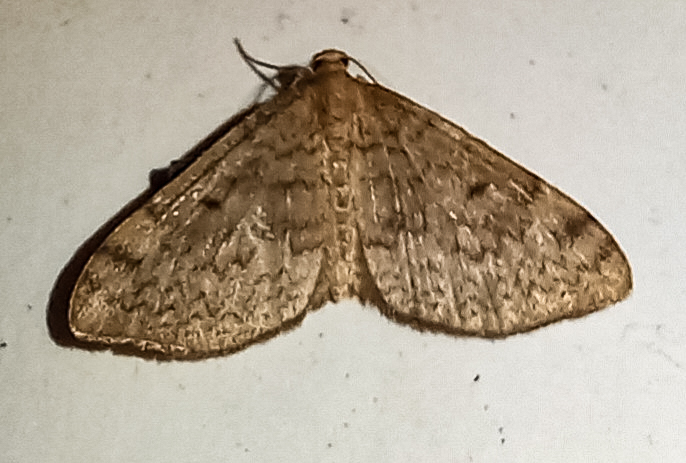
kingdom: Animalia
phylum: Arthropoda
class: Insecta
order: Lepidoptera
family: Geometridae
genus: Epiphryne
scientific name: Epiphryne undosata
